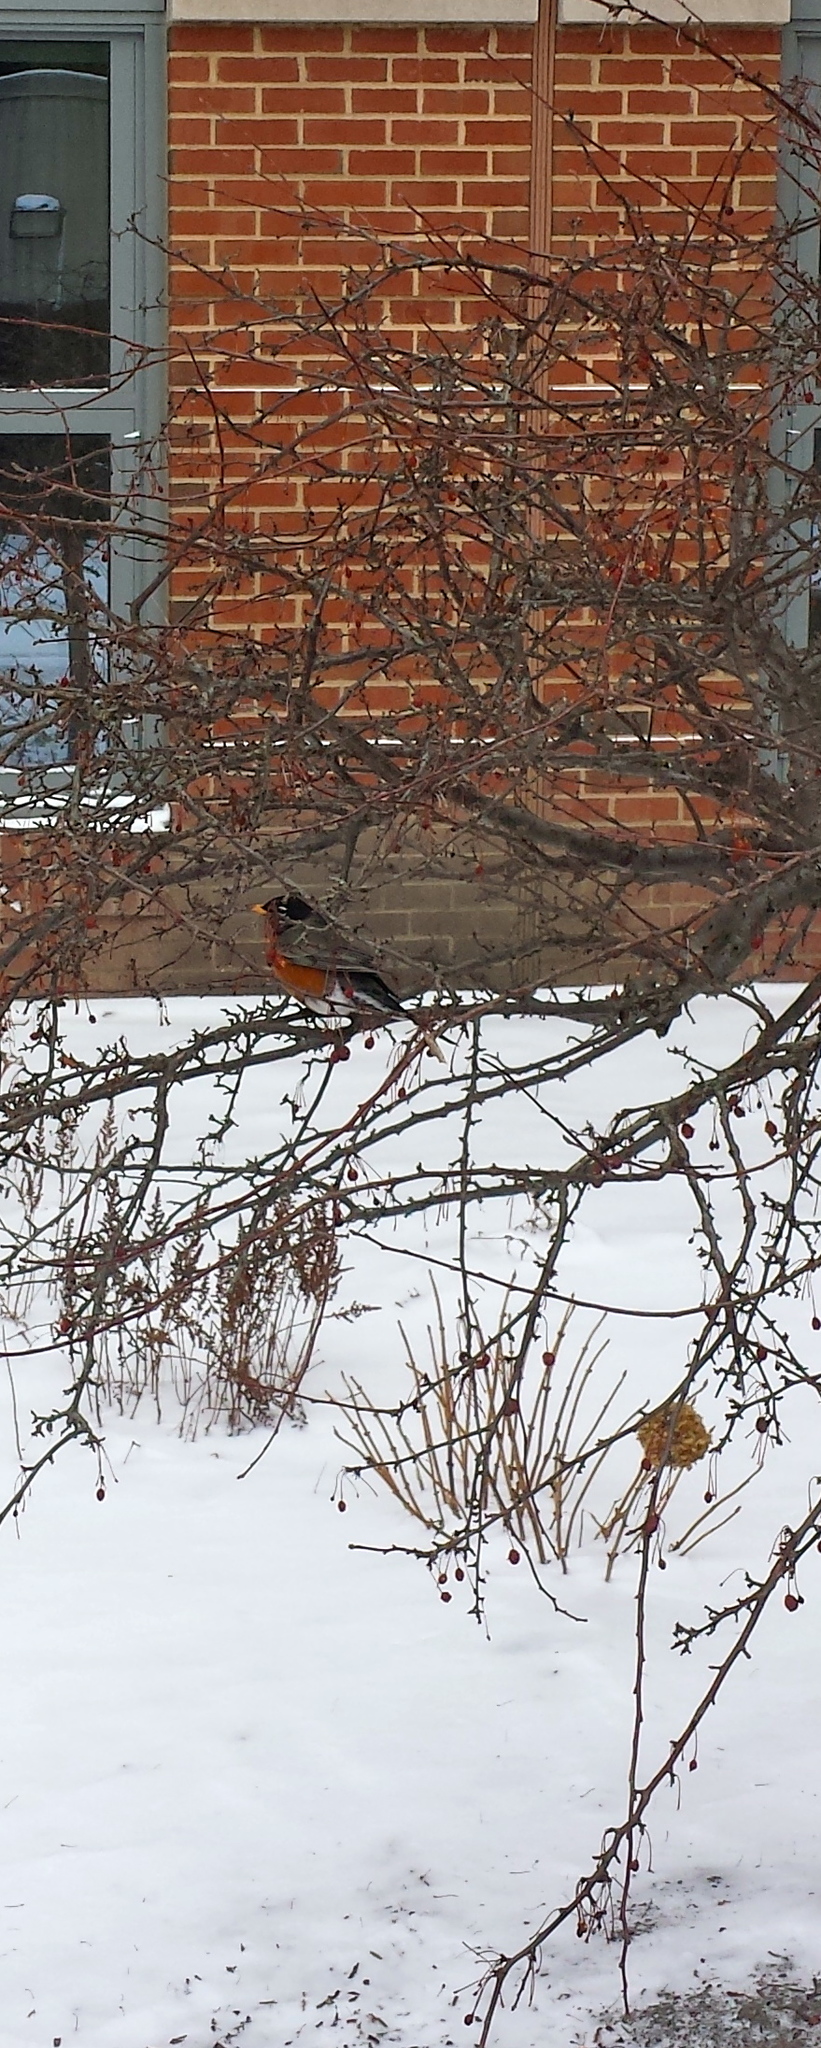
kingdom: Animalia
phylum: Chordata
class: Aves
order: Passeriformes
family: Turdidae
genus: Turdus
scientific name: Turdus migratorius
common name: American robin
